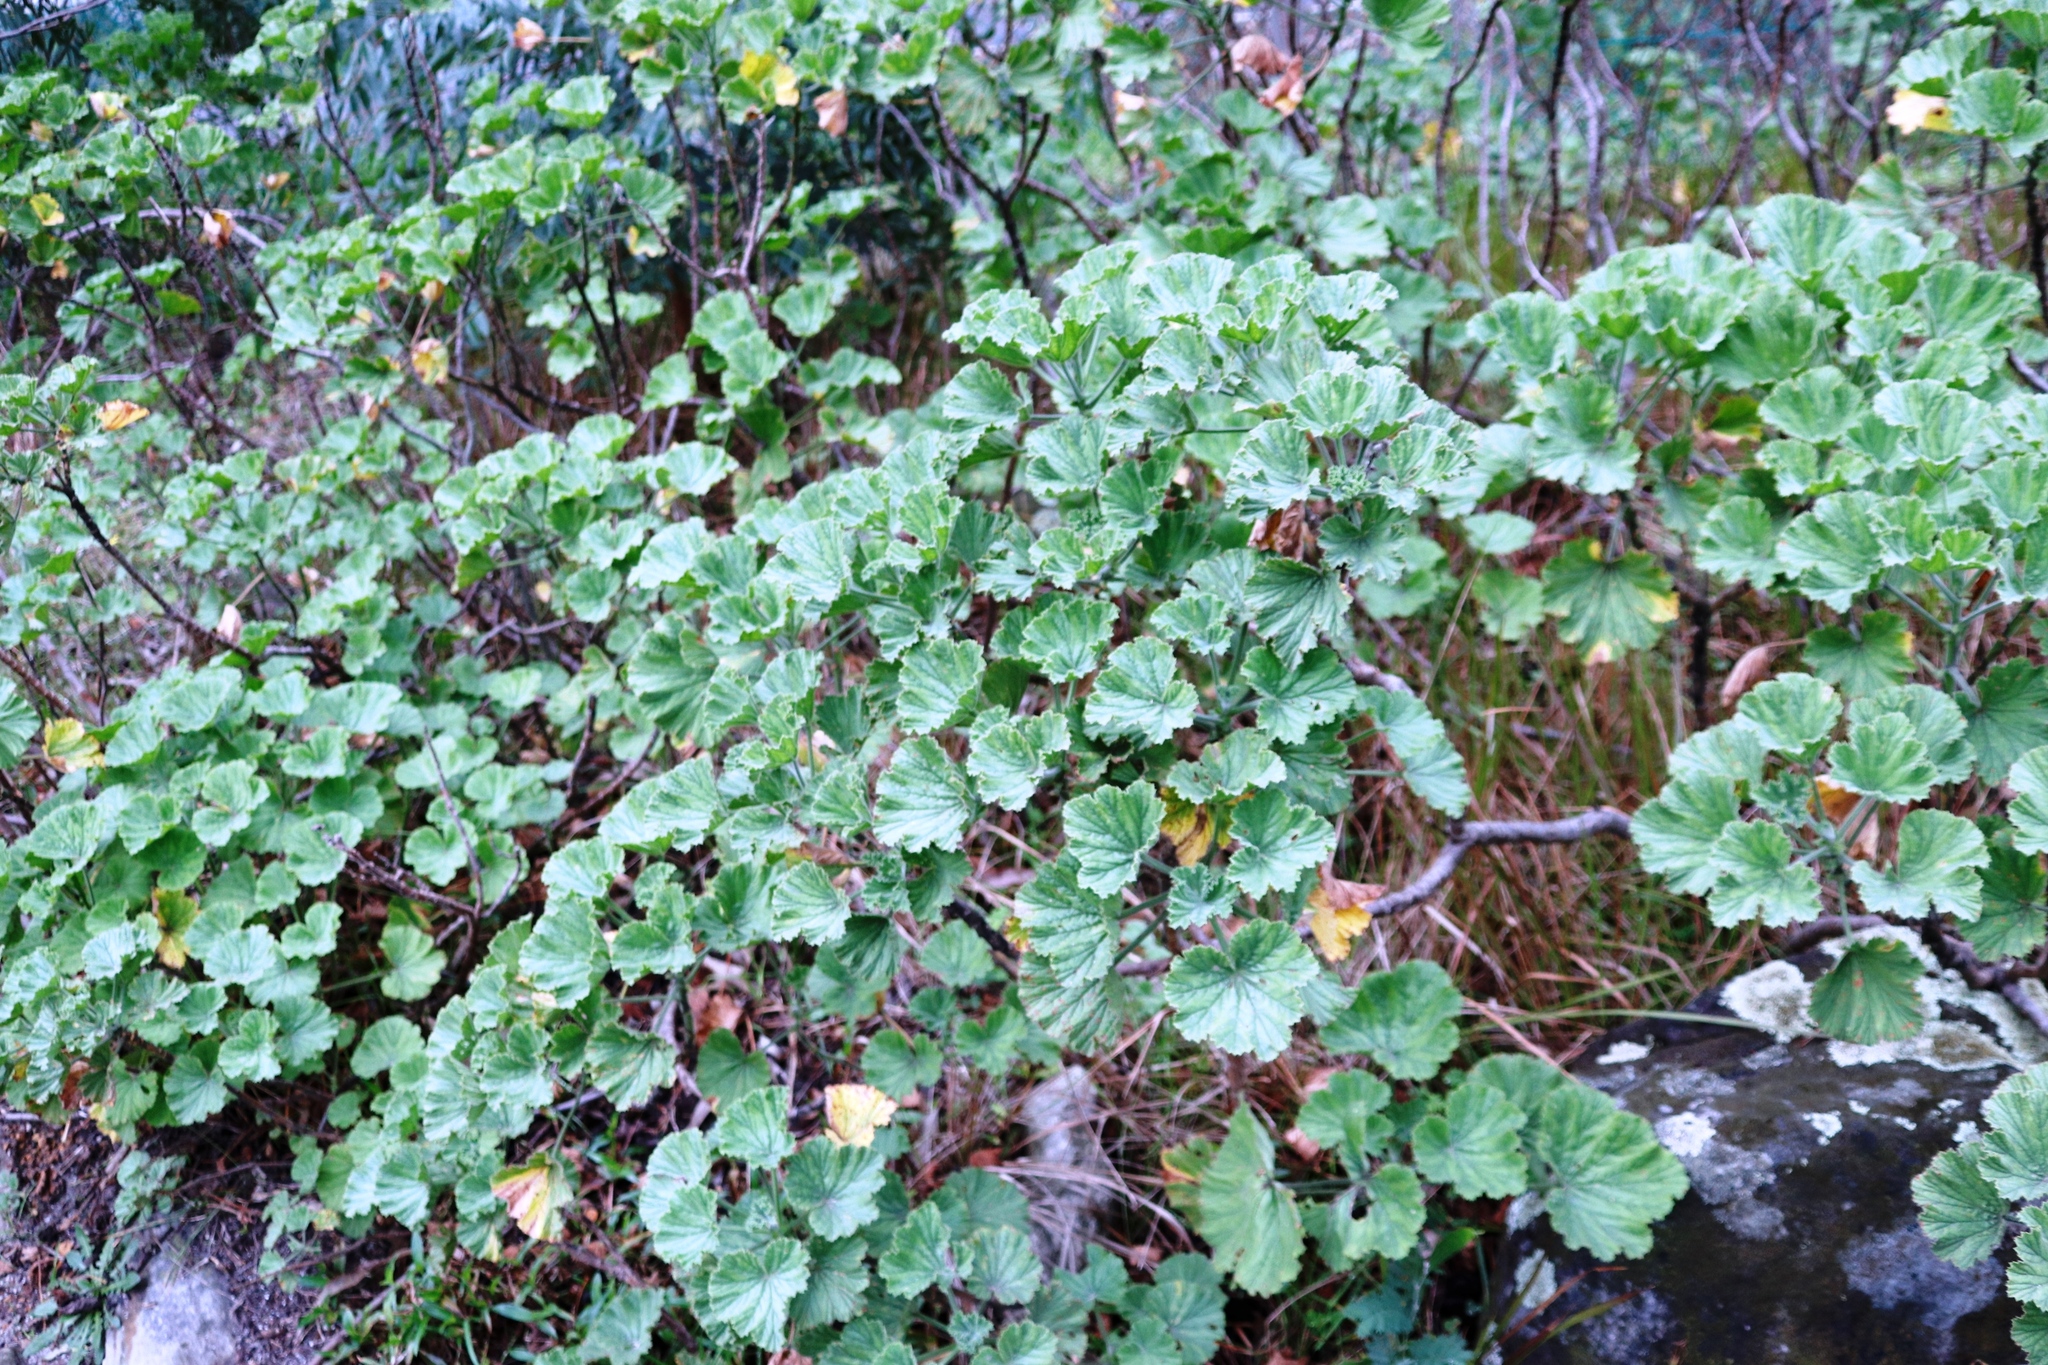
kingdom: Plantae
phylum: Tracheophyta
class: Magnoliopsida
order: Geraniales
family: Geraniaceae
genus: Pelargonium
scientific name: Pelargonium cucullatum
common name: Tree pelargonium
